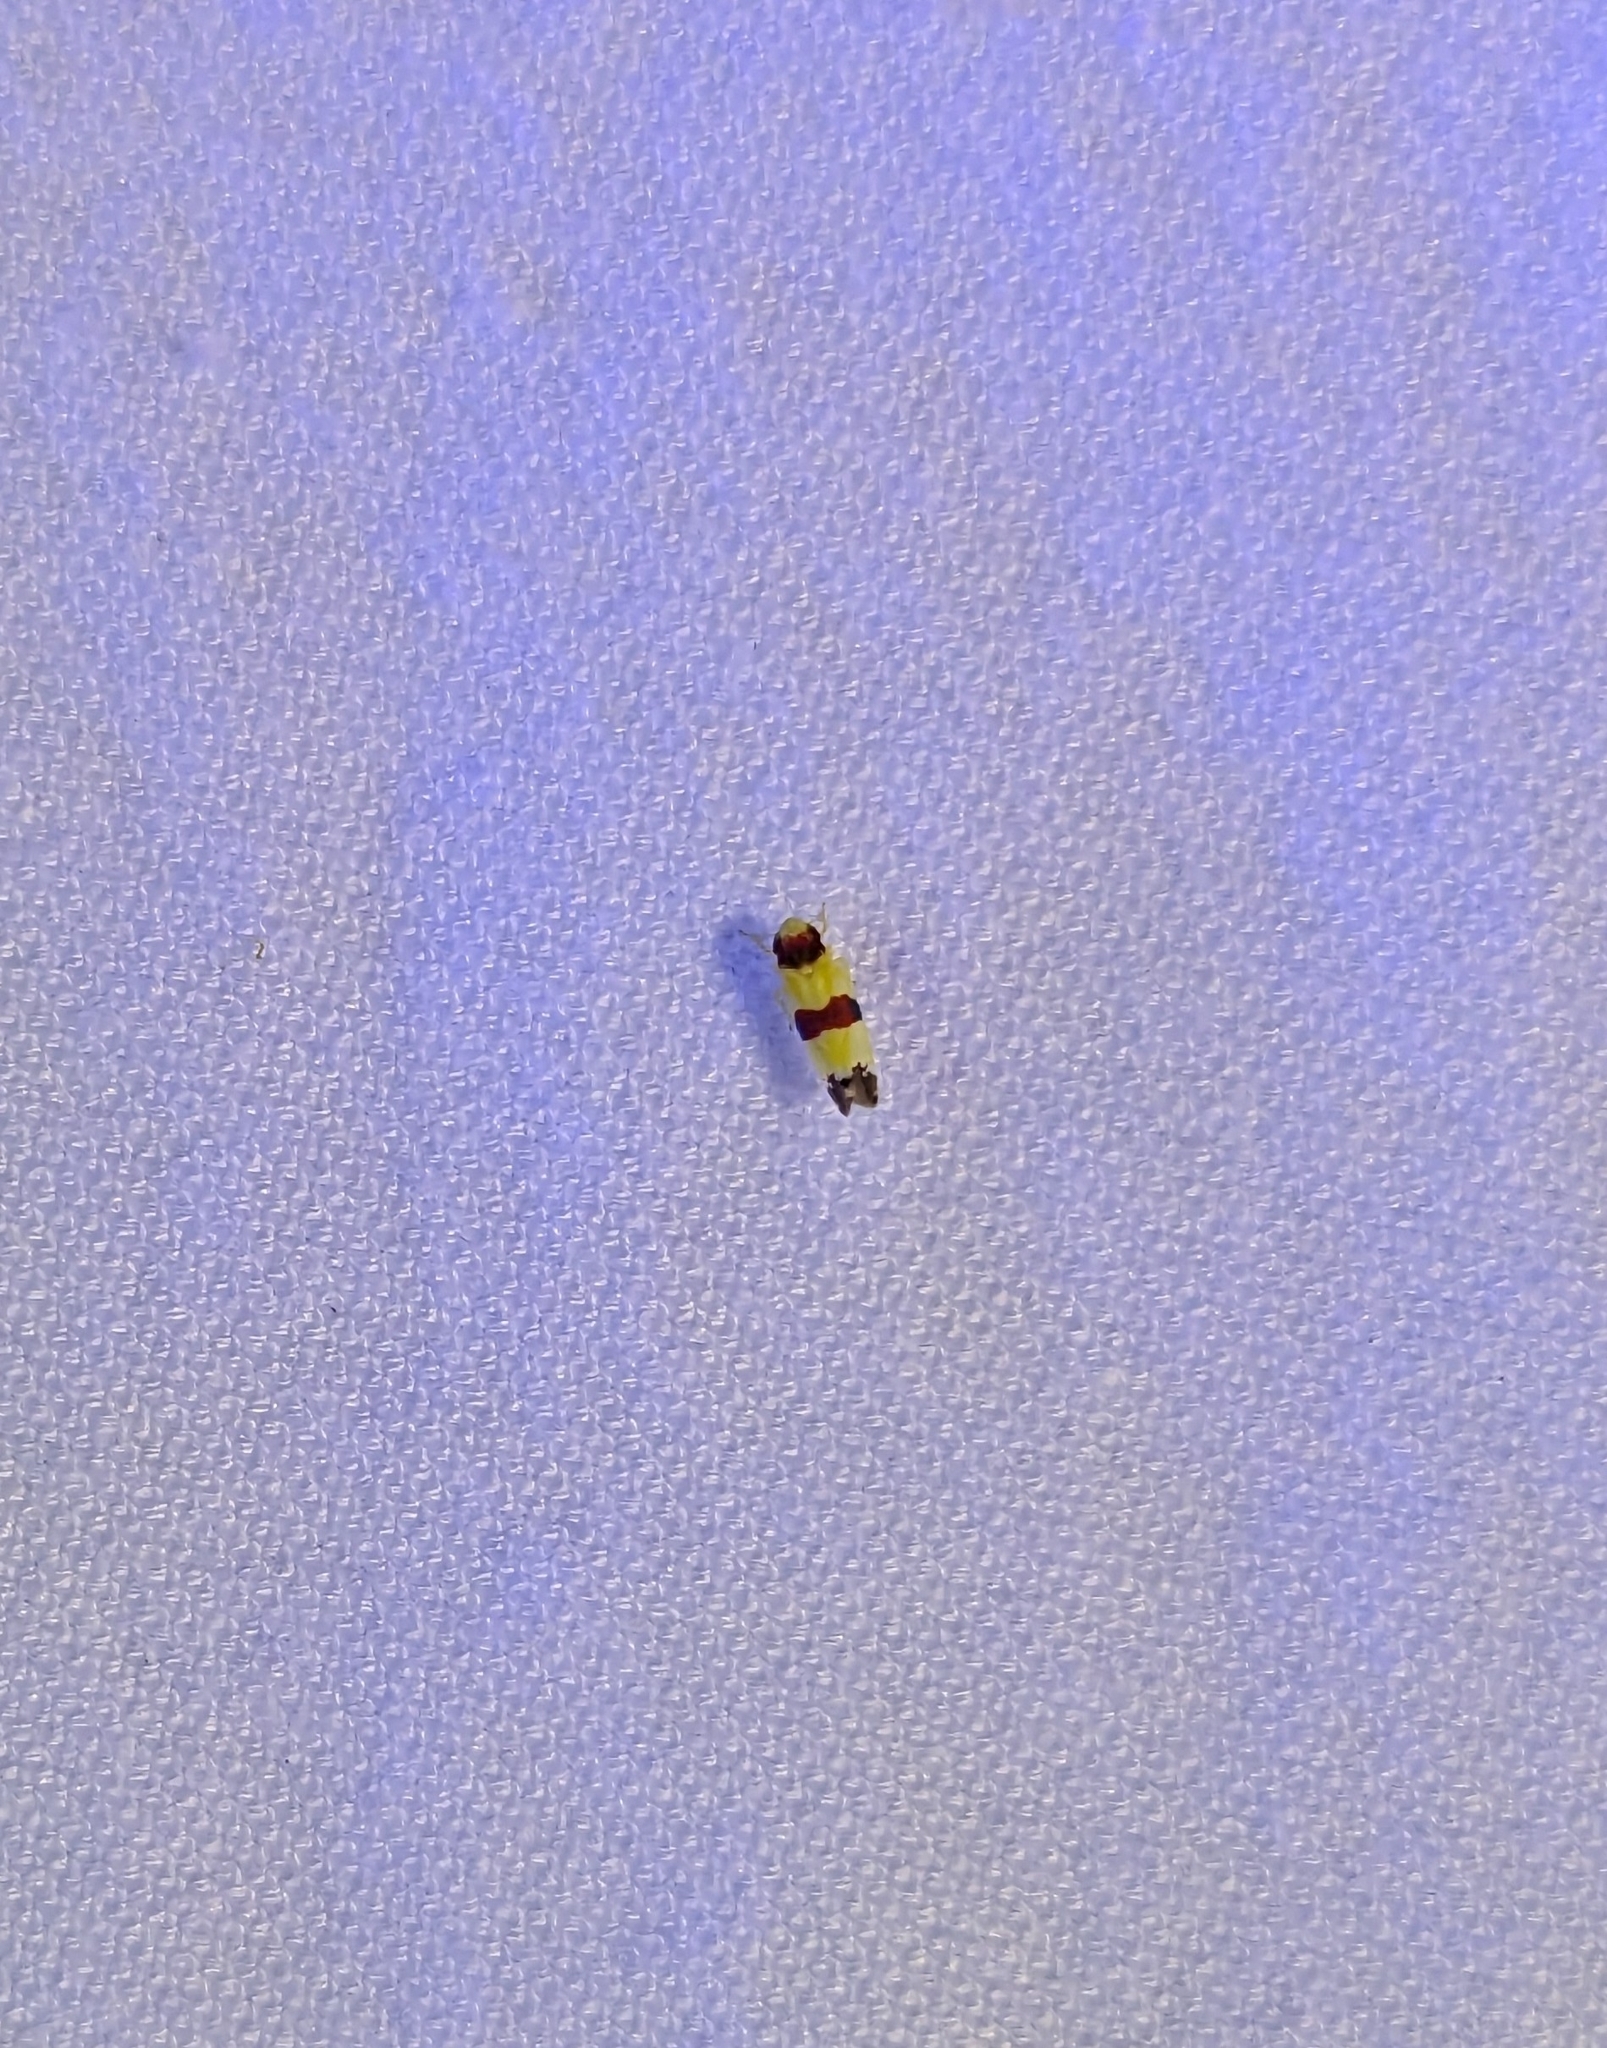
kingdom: Animalia
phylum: Arthropoda
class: Insecta
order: Hemiptera
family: Cicadellidae
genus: Erythroneura
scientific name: Erythroneura tricincta
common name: The threebanded grape leafhopper
